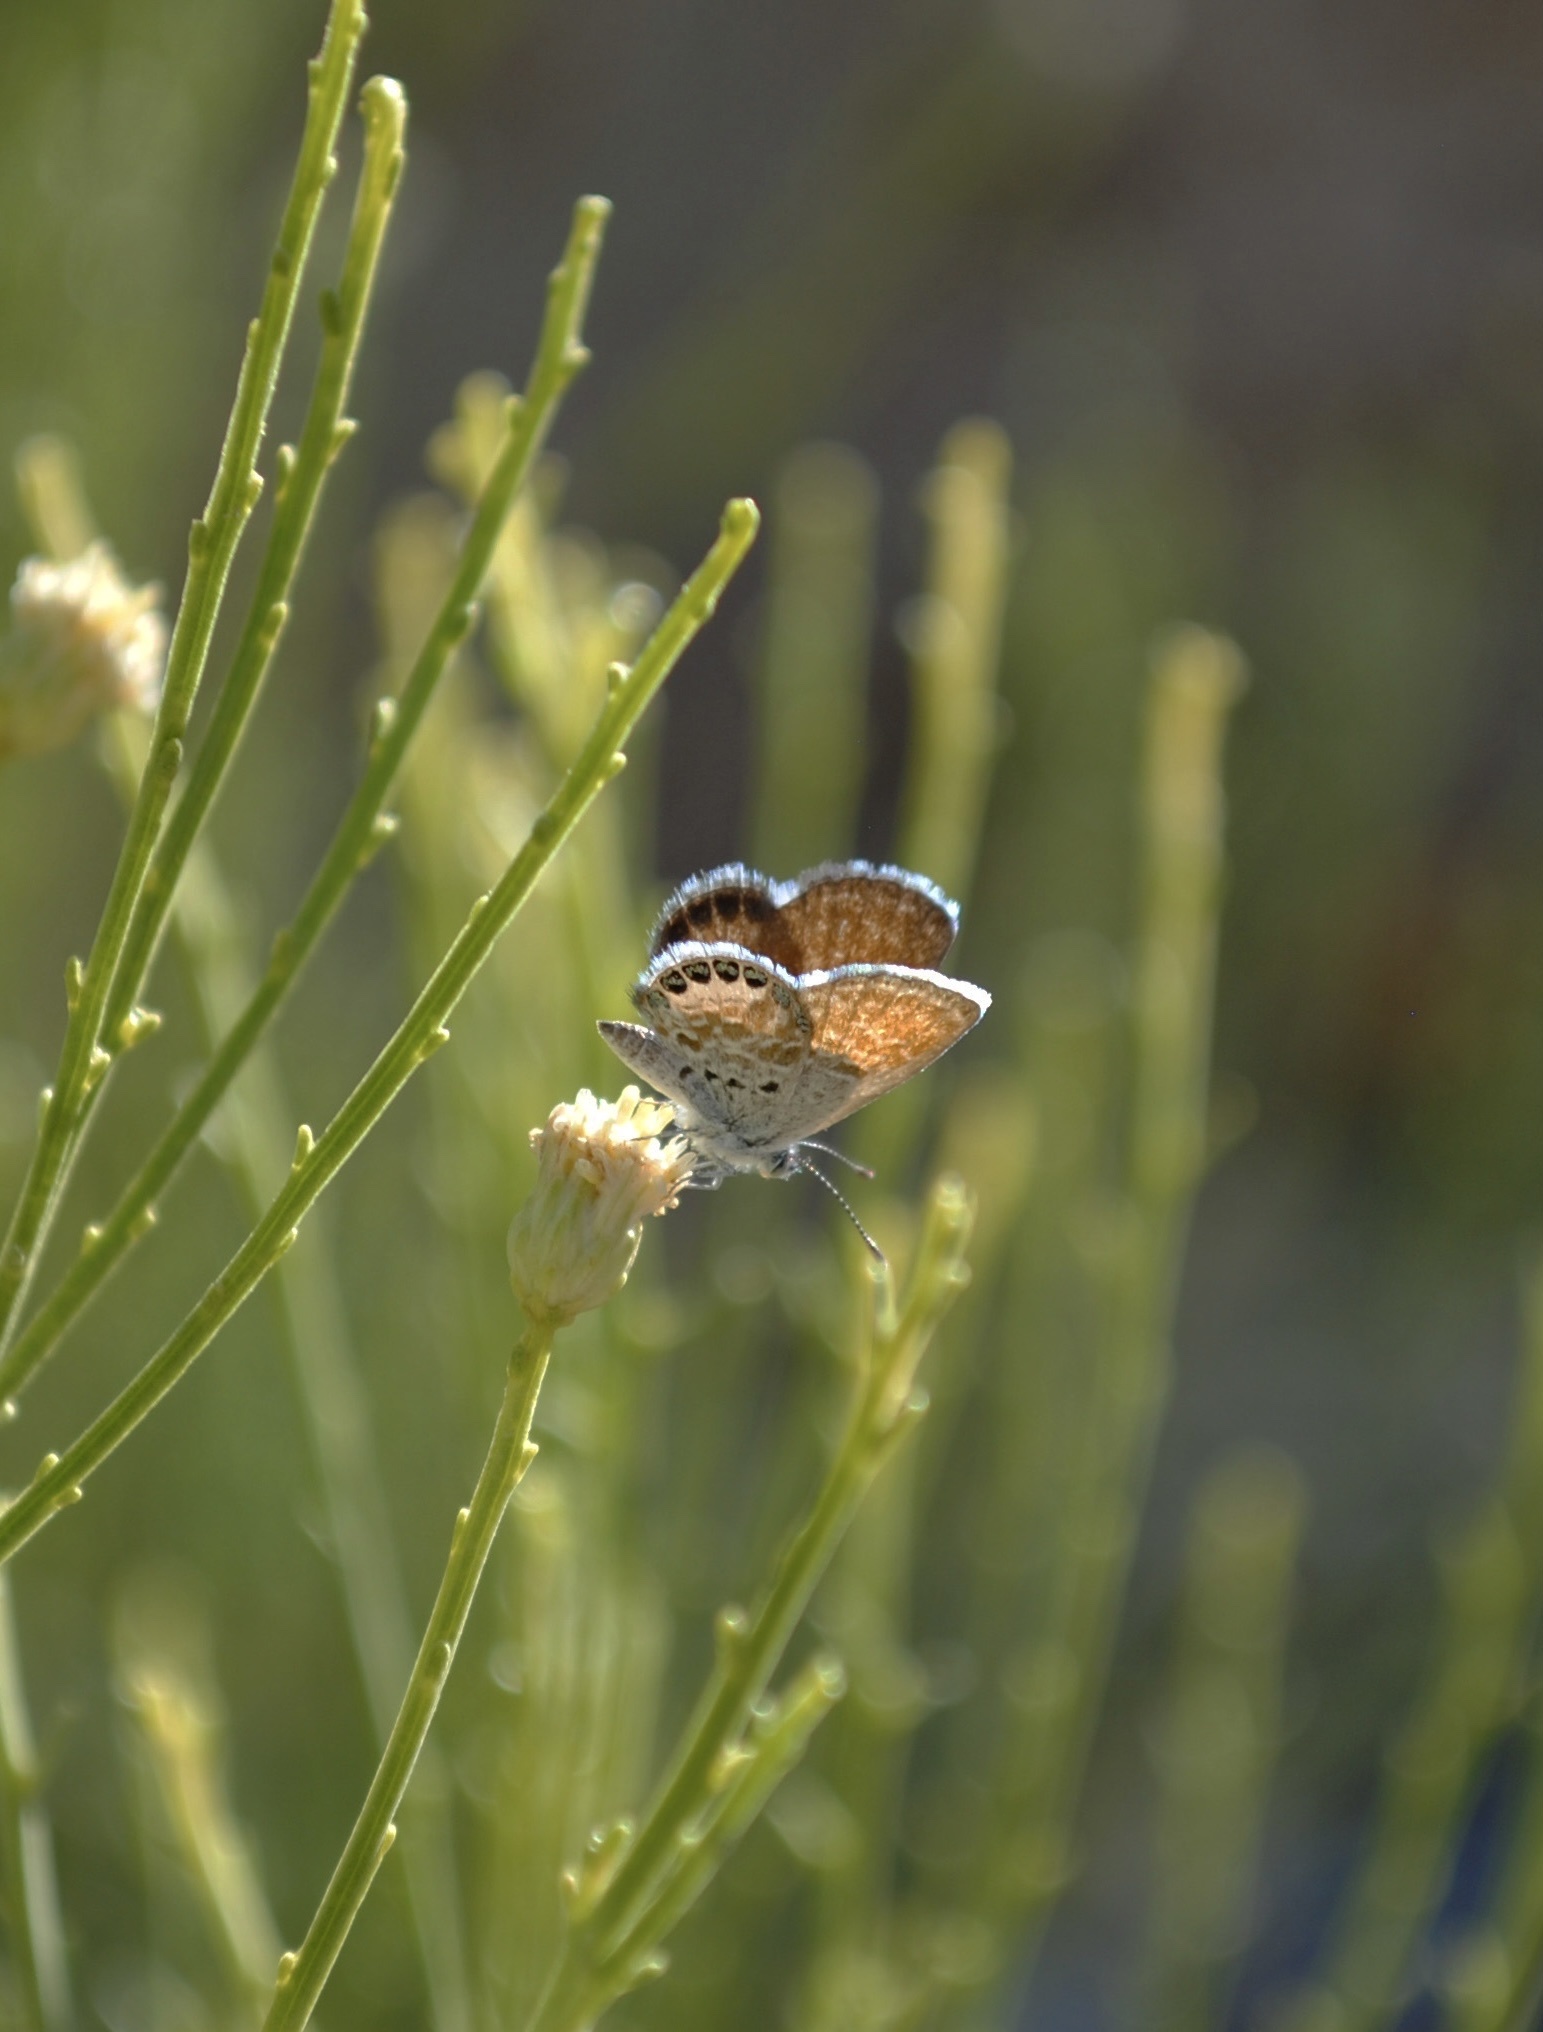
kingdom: Animalia
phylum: Arthropoda
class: Insecta
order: Lepidoptera
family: Lycaenidae
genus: Brephidium
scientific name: Brephidium exilis
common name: Pygmy blue
